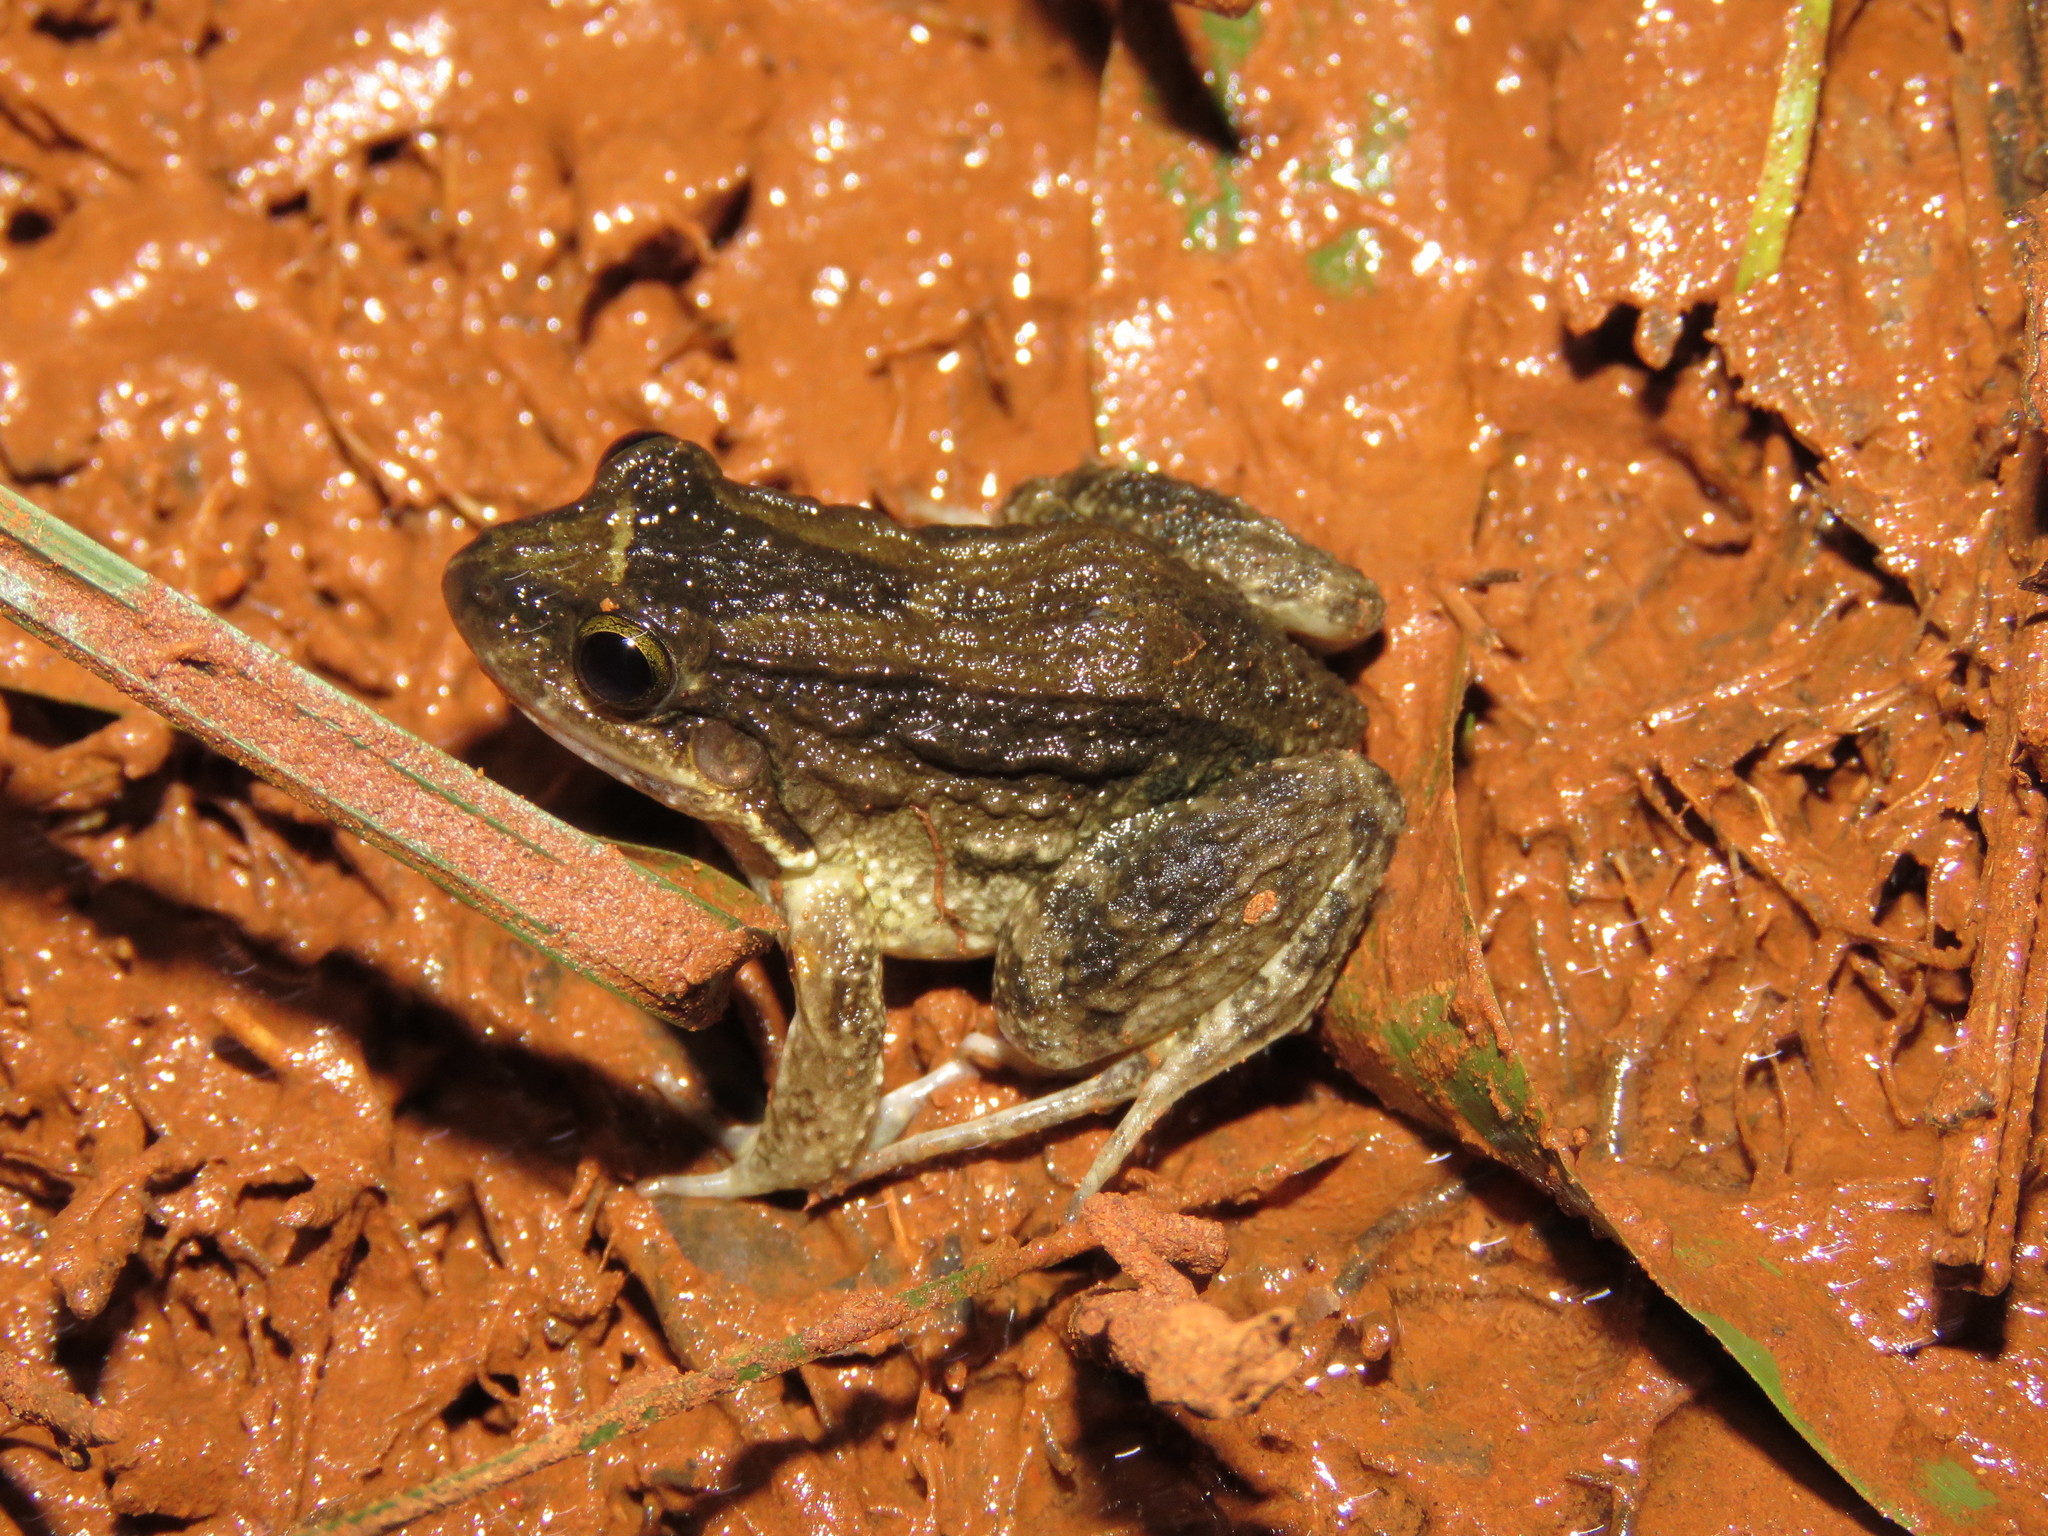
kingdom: Animalia
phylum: Chordata
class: Amphibia
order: Anura
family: Leptodactylidae
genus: Leptodactylus
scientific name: Leptodactylus leptodactyloides
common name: Common thin-toed frog
